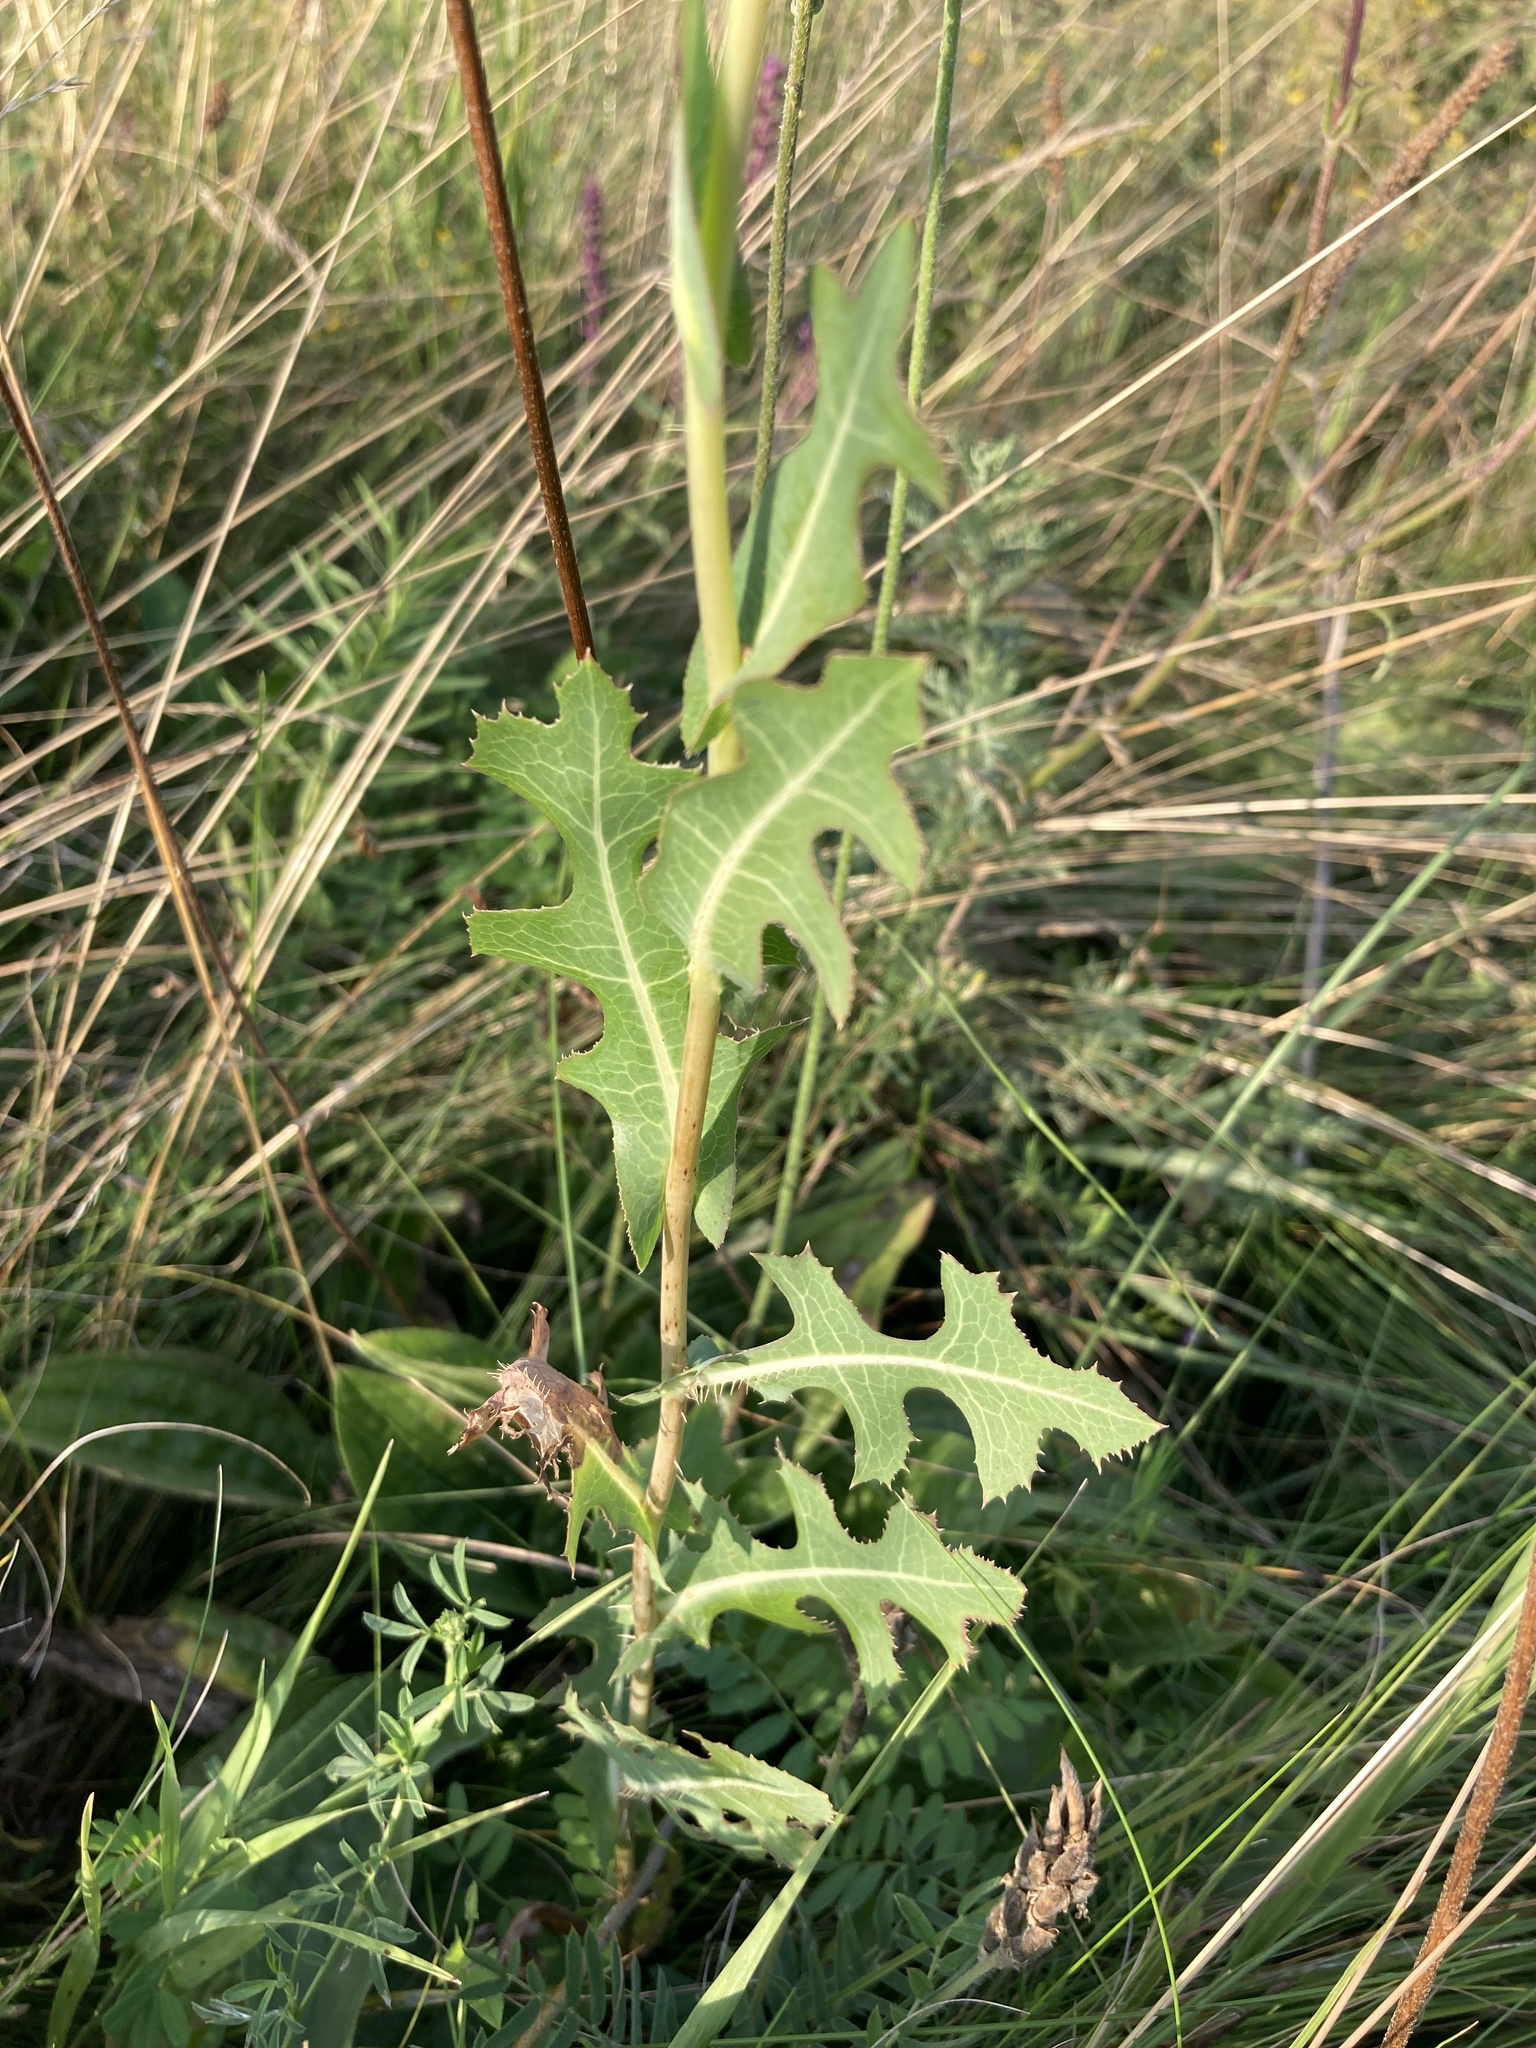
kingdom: Plantae
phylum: Tracheophyta
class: Magnoliopsida
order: Asterales
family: Asteraceae
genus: Lactuca
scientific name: Lactuca serriola
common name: Prickly lettuce
